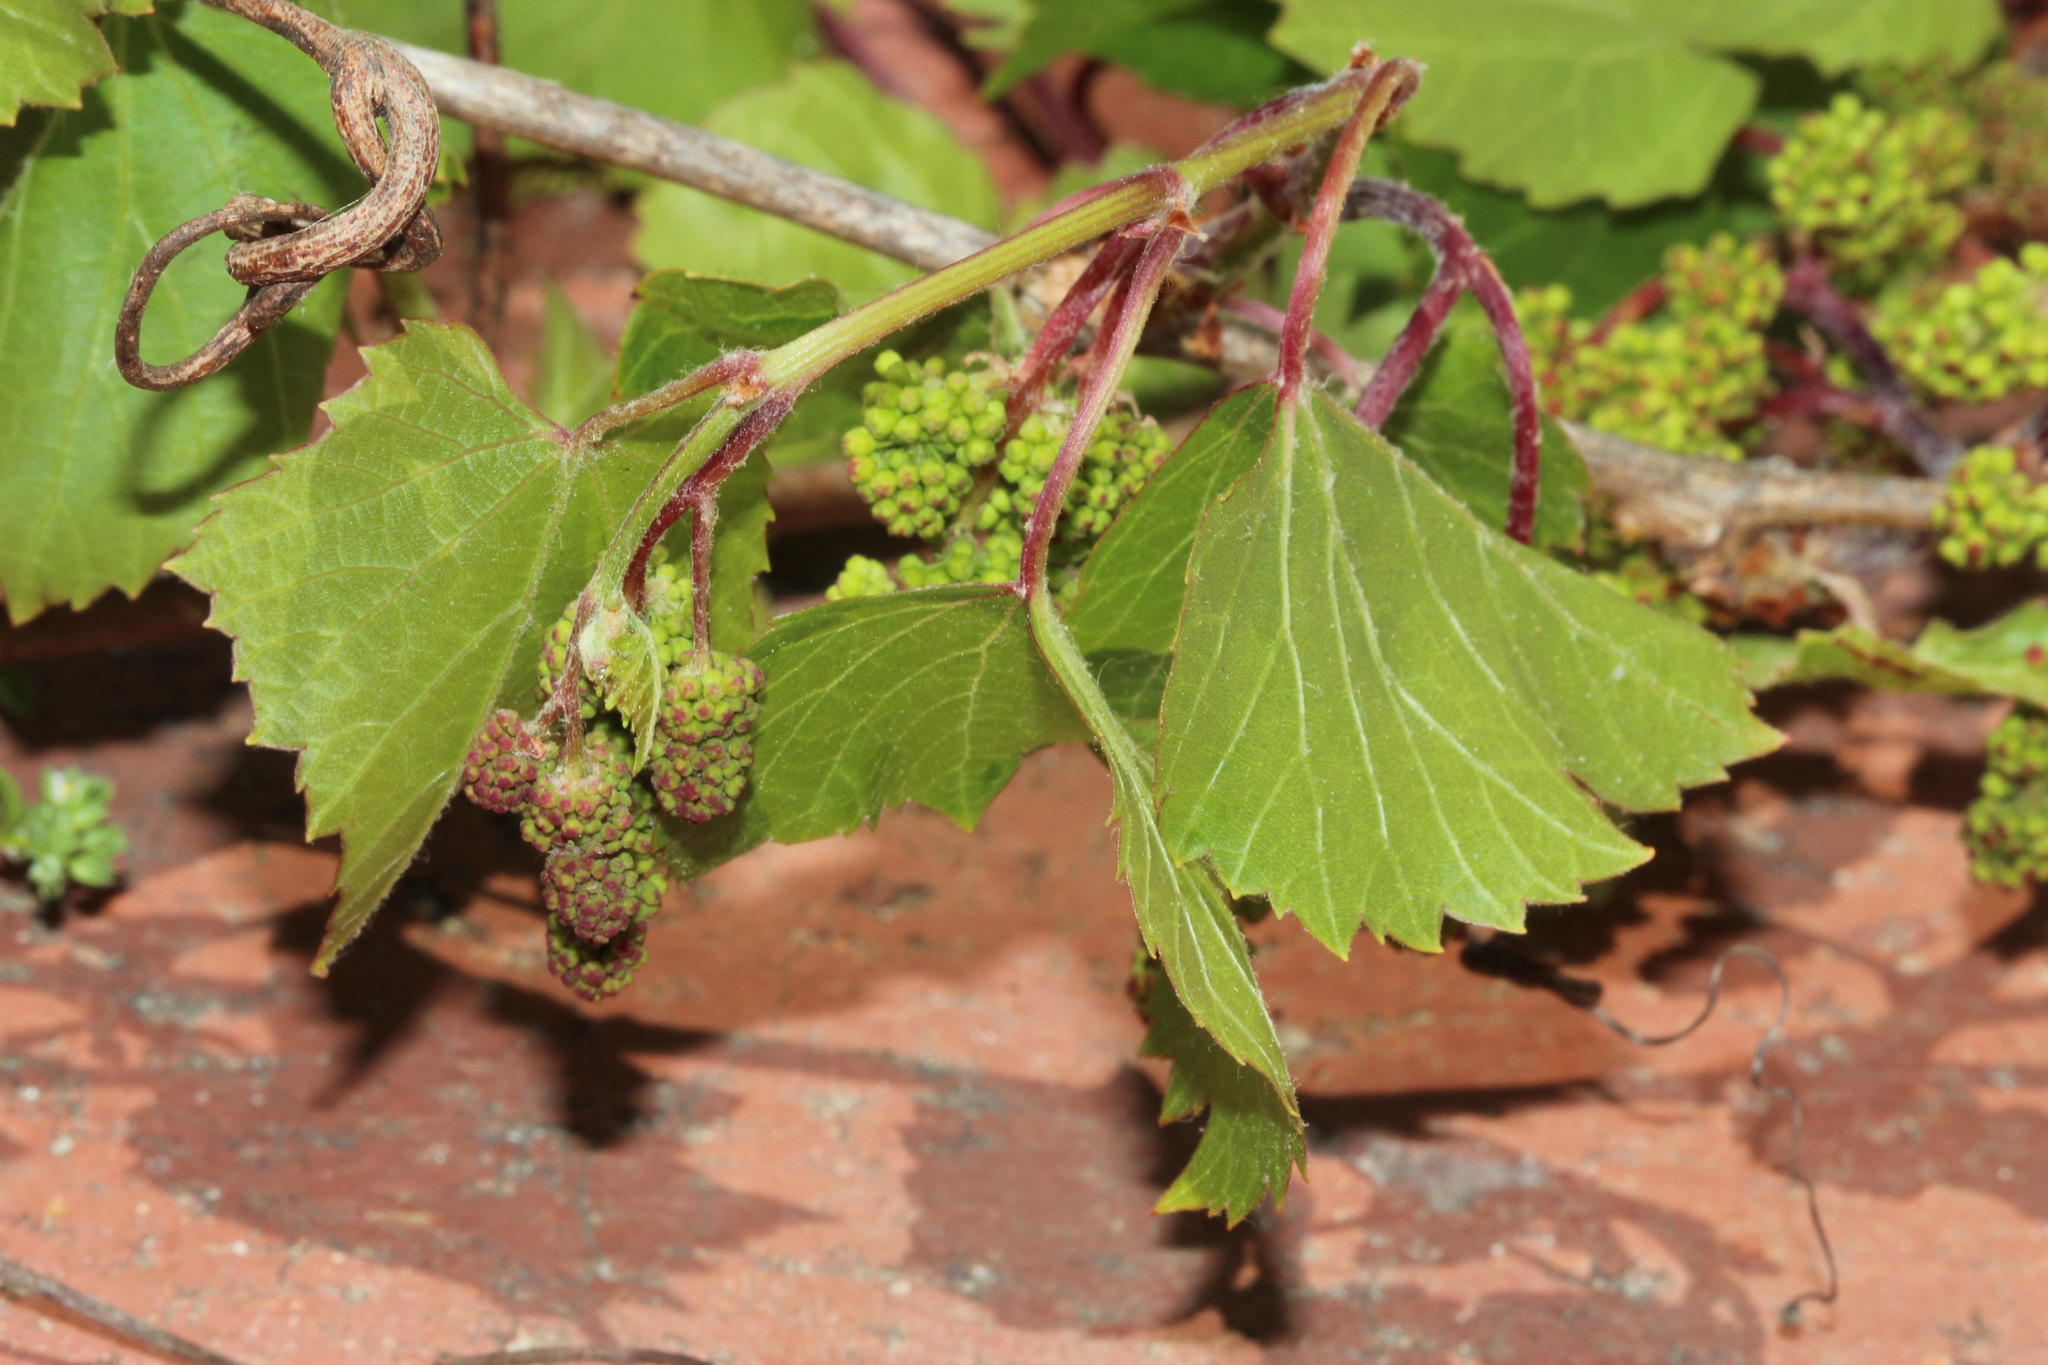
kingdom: Plantae
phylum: Tracheophyta
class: Magnoliopsida
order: Vitales
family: Vitaceae
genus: Vitis
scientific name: Vitis vinifera
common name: Grape-vine
